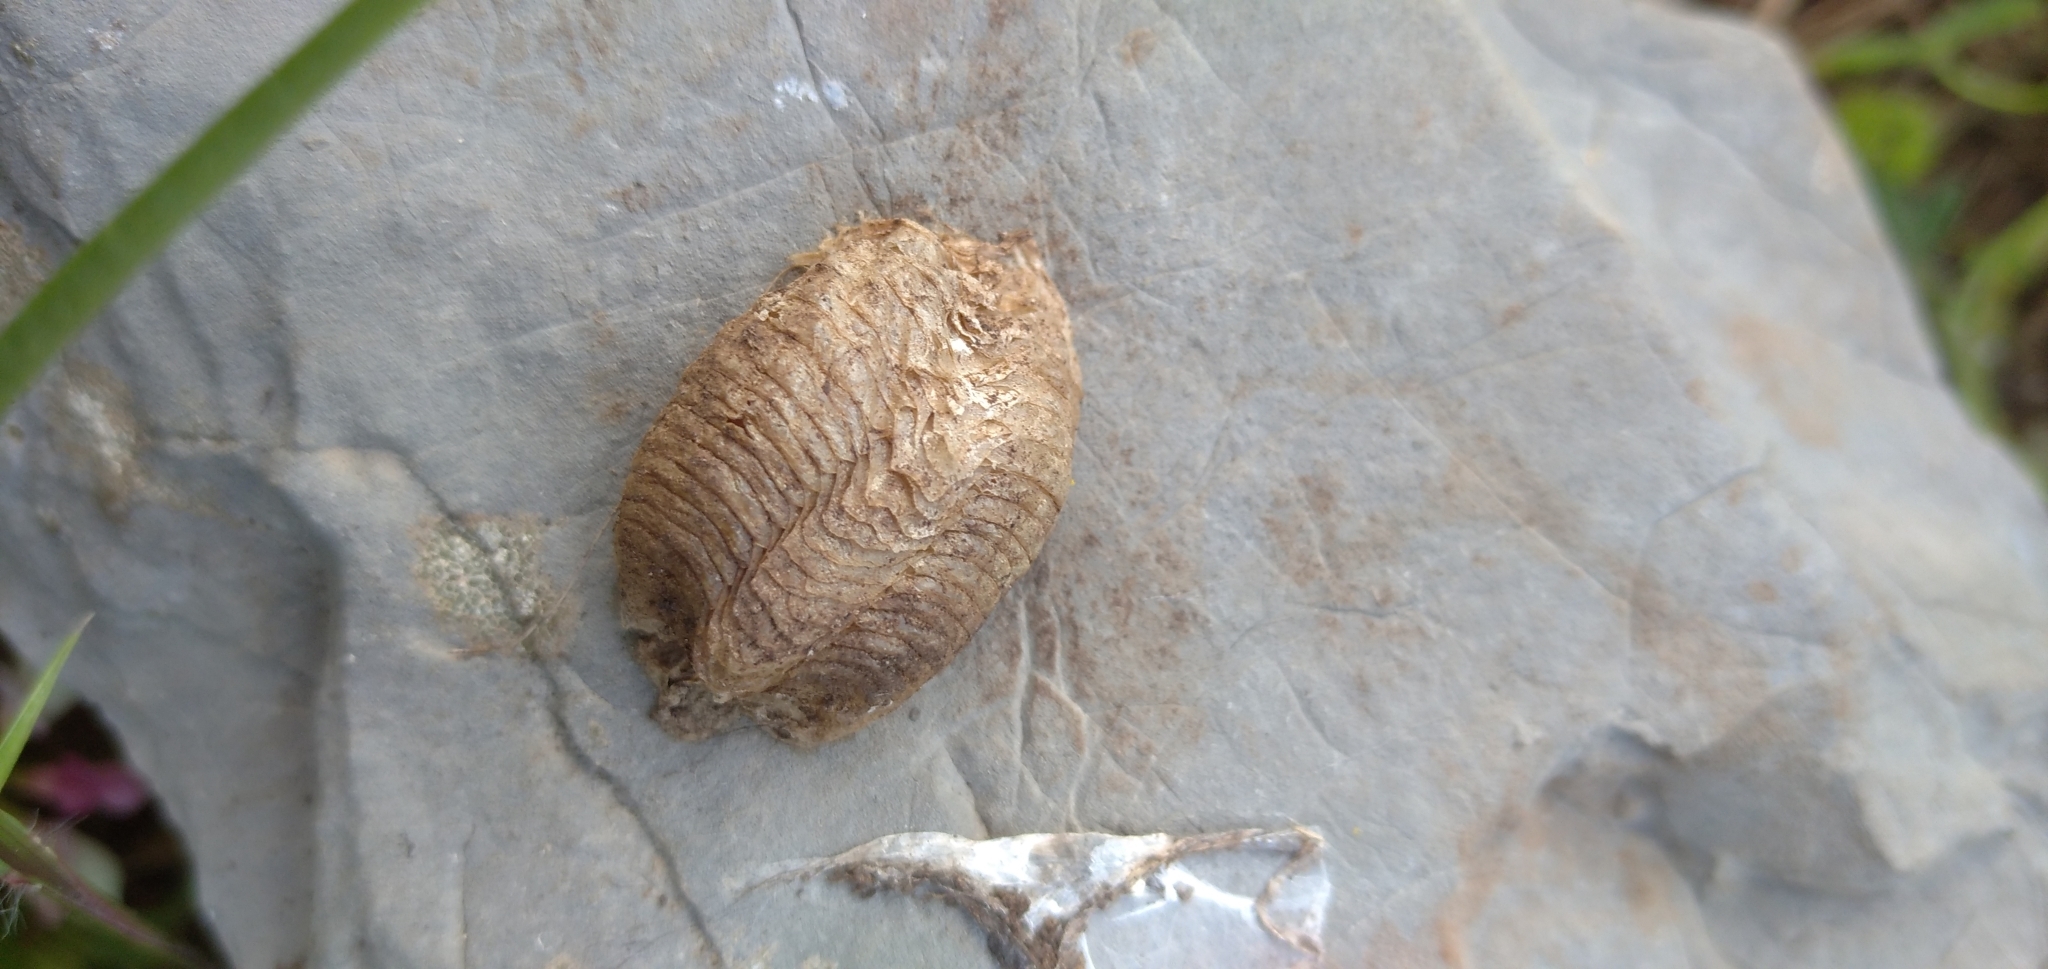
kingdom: Animalia
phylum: Arthropoda
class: Insecta
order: Mantodea
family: Mantidae
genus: Mantis
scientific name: Mantis religiosa
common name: Praying mantis
